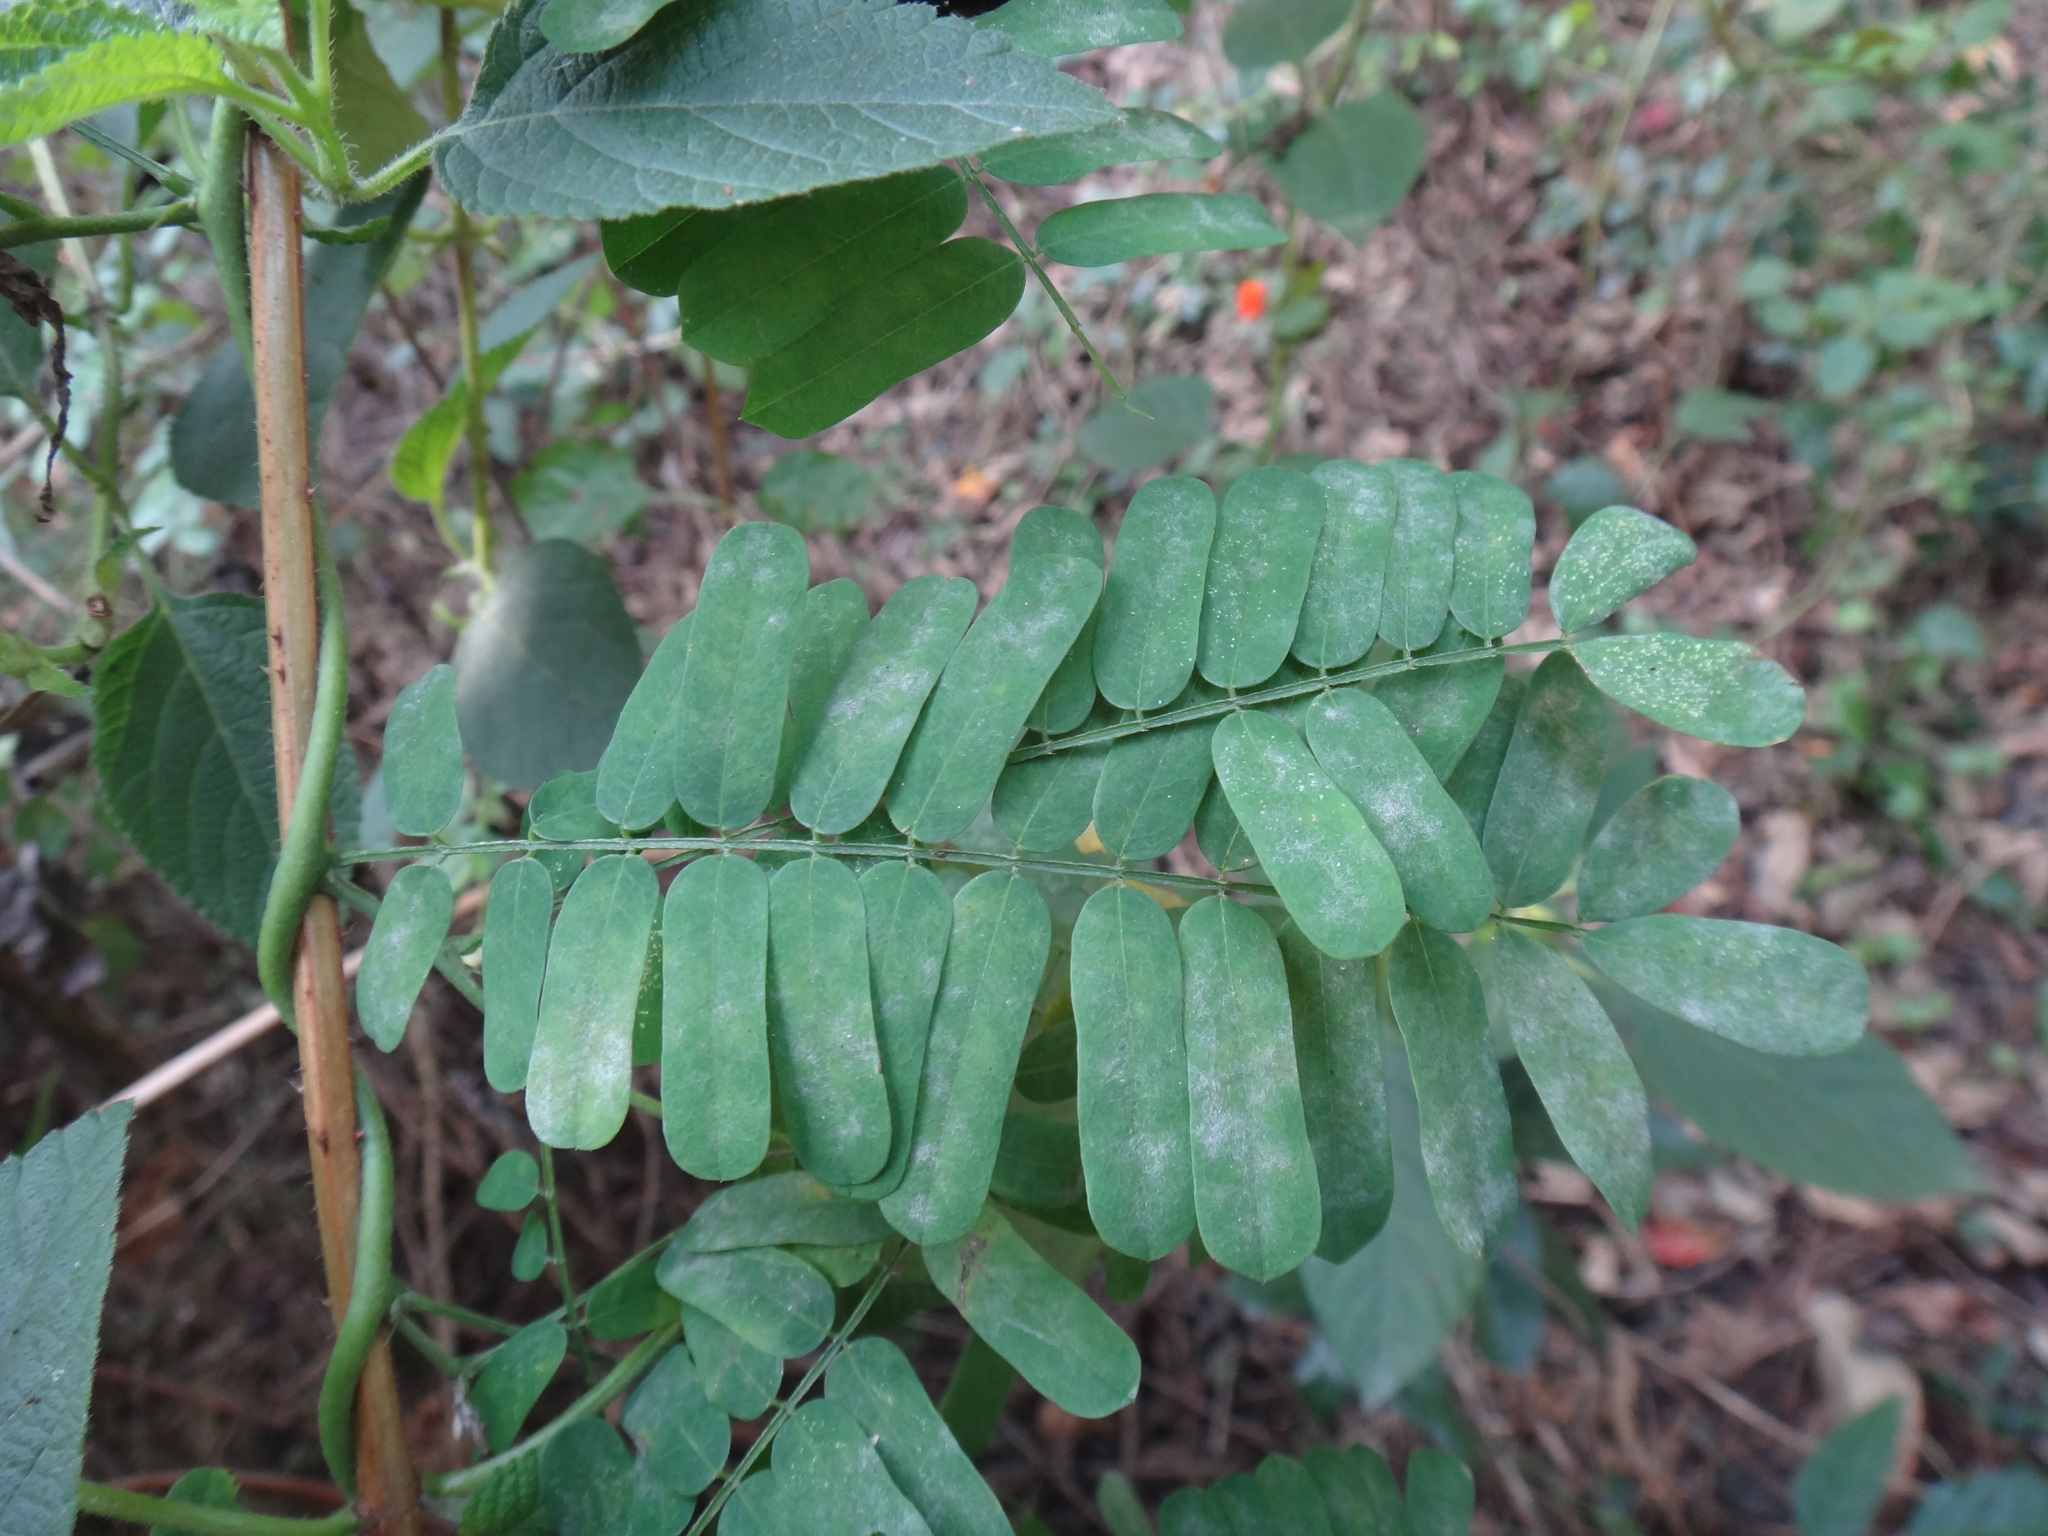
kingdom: Plantae
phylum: Tracheophyta
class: Magnoliopsida
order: Fabales
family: Fabaceae
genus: Abrus
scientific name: Abrus precatorius
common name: Rosarypea
